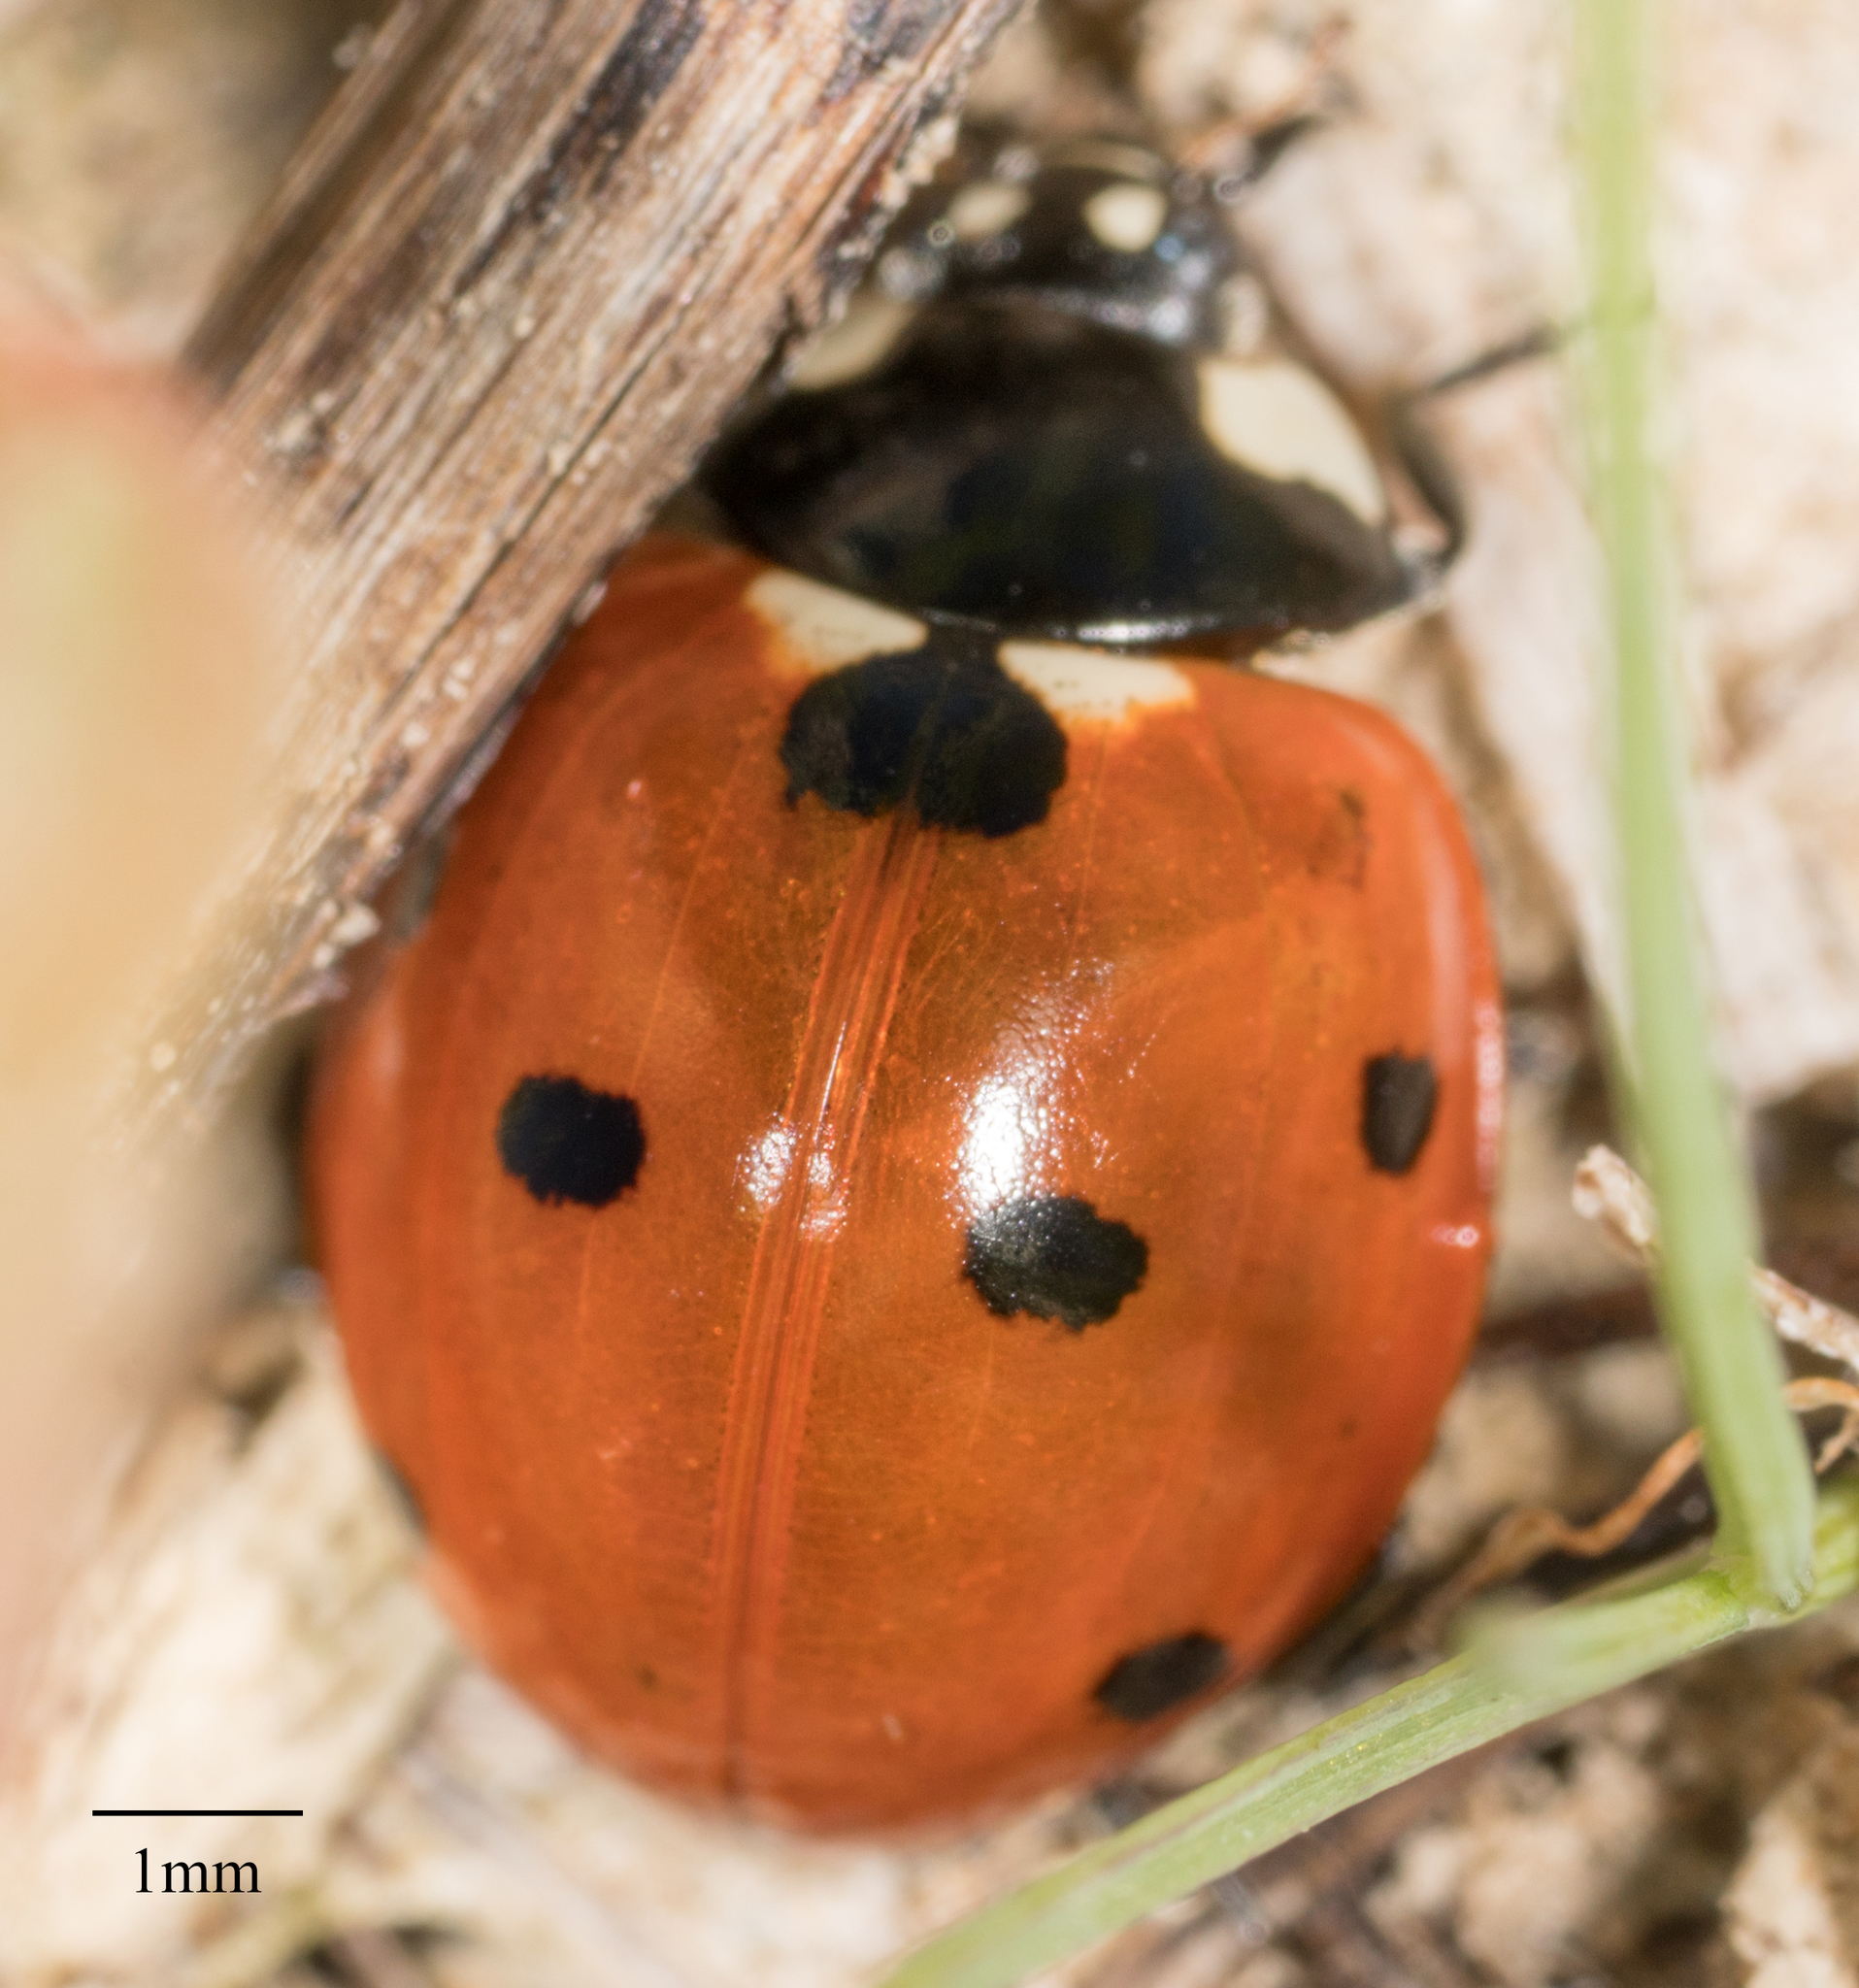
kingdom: Animalia
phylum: Arthropoda
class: Insecta
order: Coleoptera
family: Coccinellidae
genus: Coccinella
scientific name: Coccinella septempunctata
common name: Sevenspotted lady beetle
